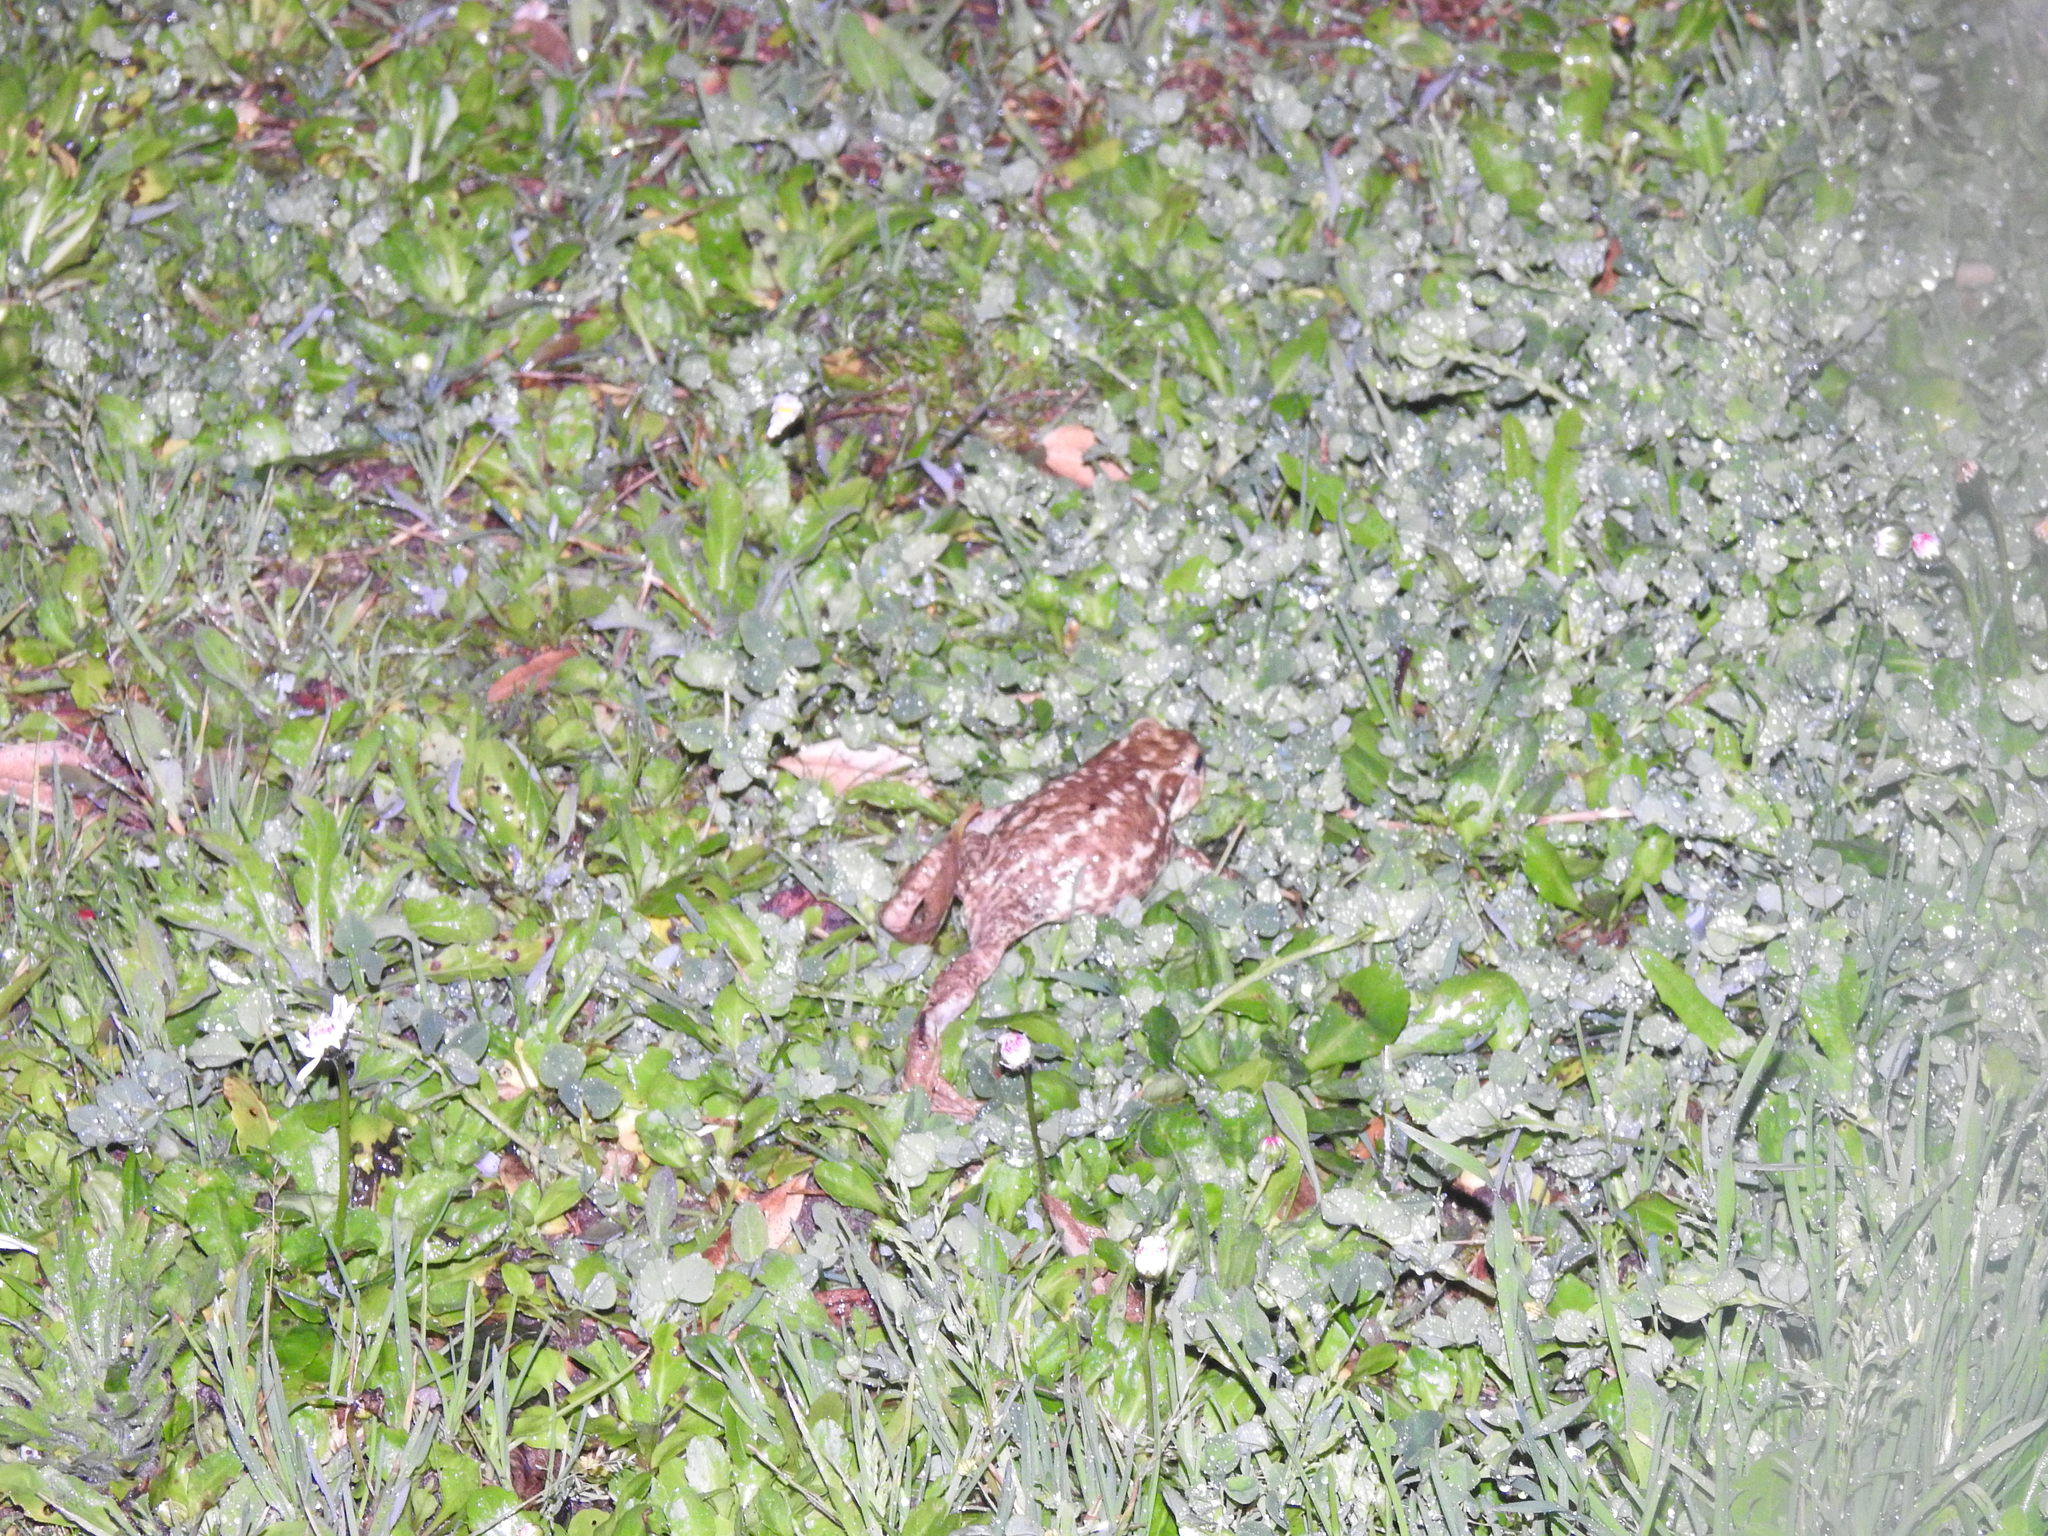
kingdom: Animalia
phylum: Chordata
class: Amphibia
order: Anura
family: Bufonidae
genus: Bufo
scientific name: Bufo spinosus
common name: Western common toad
